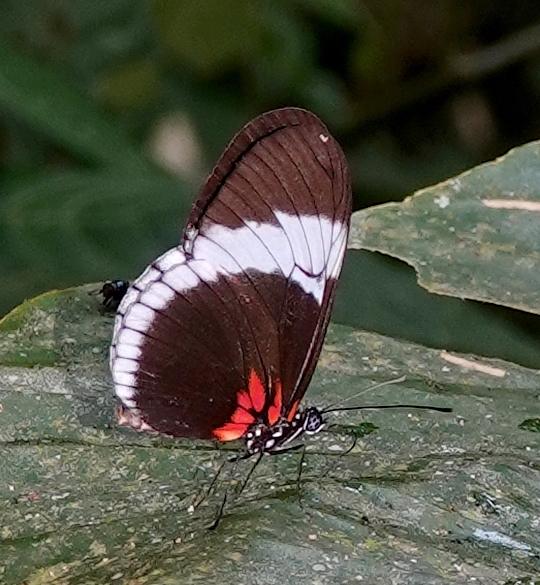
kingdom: Animalia
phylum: Arthropoda
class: Insecta
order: Lepidoptera
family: Nymphalidae
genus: Heliconius
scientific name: Heliconius sapho
